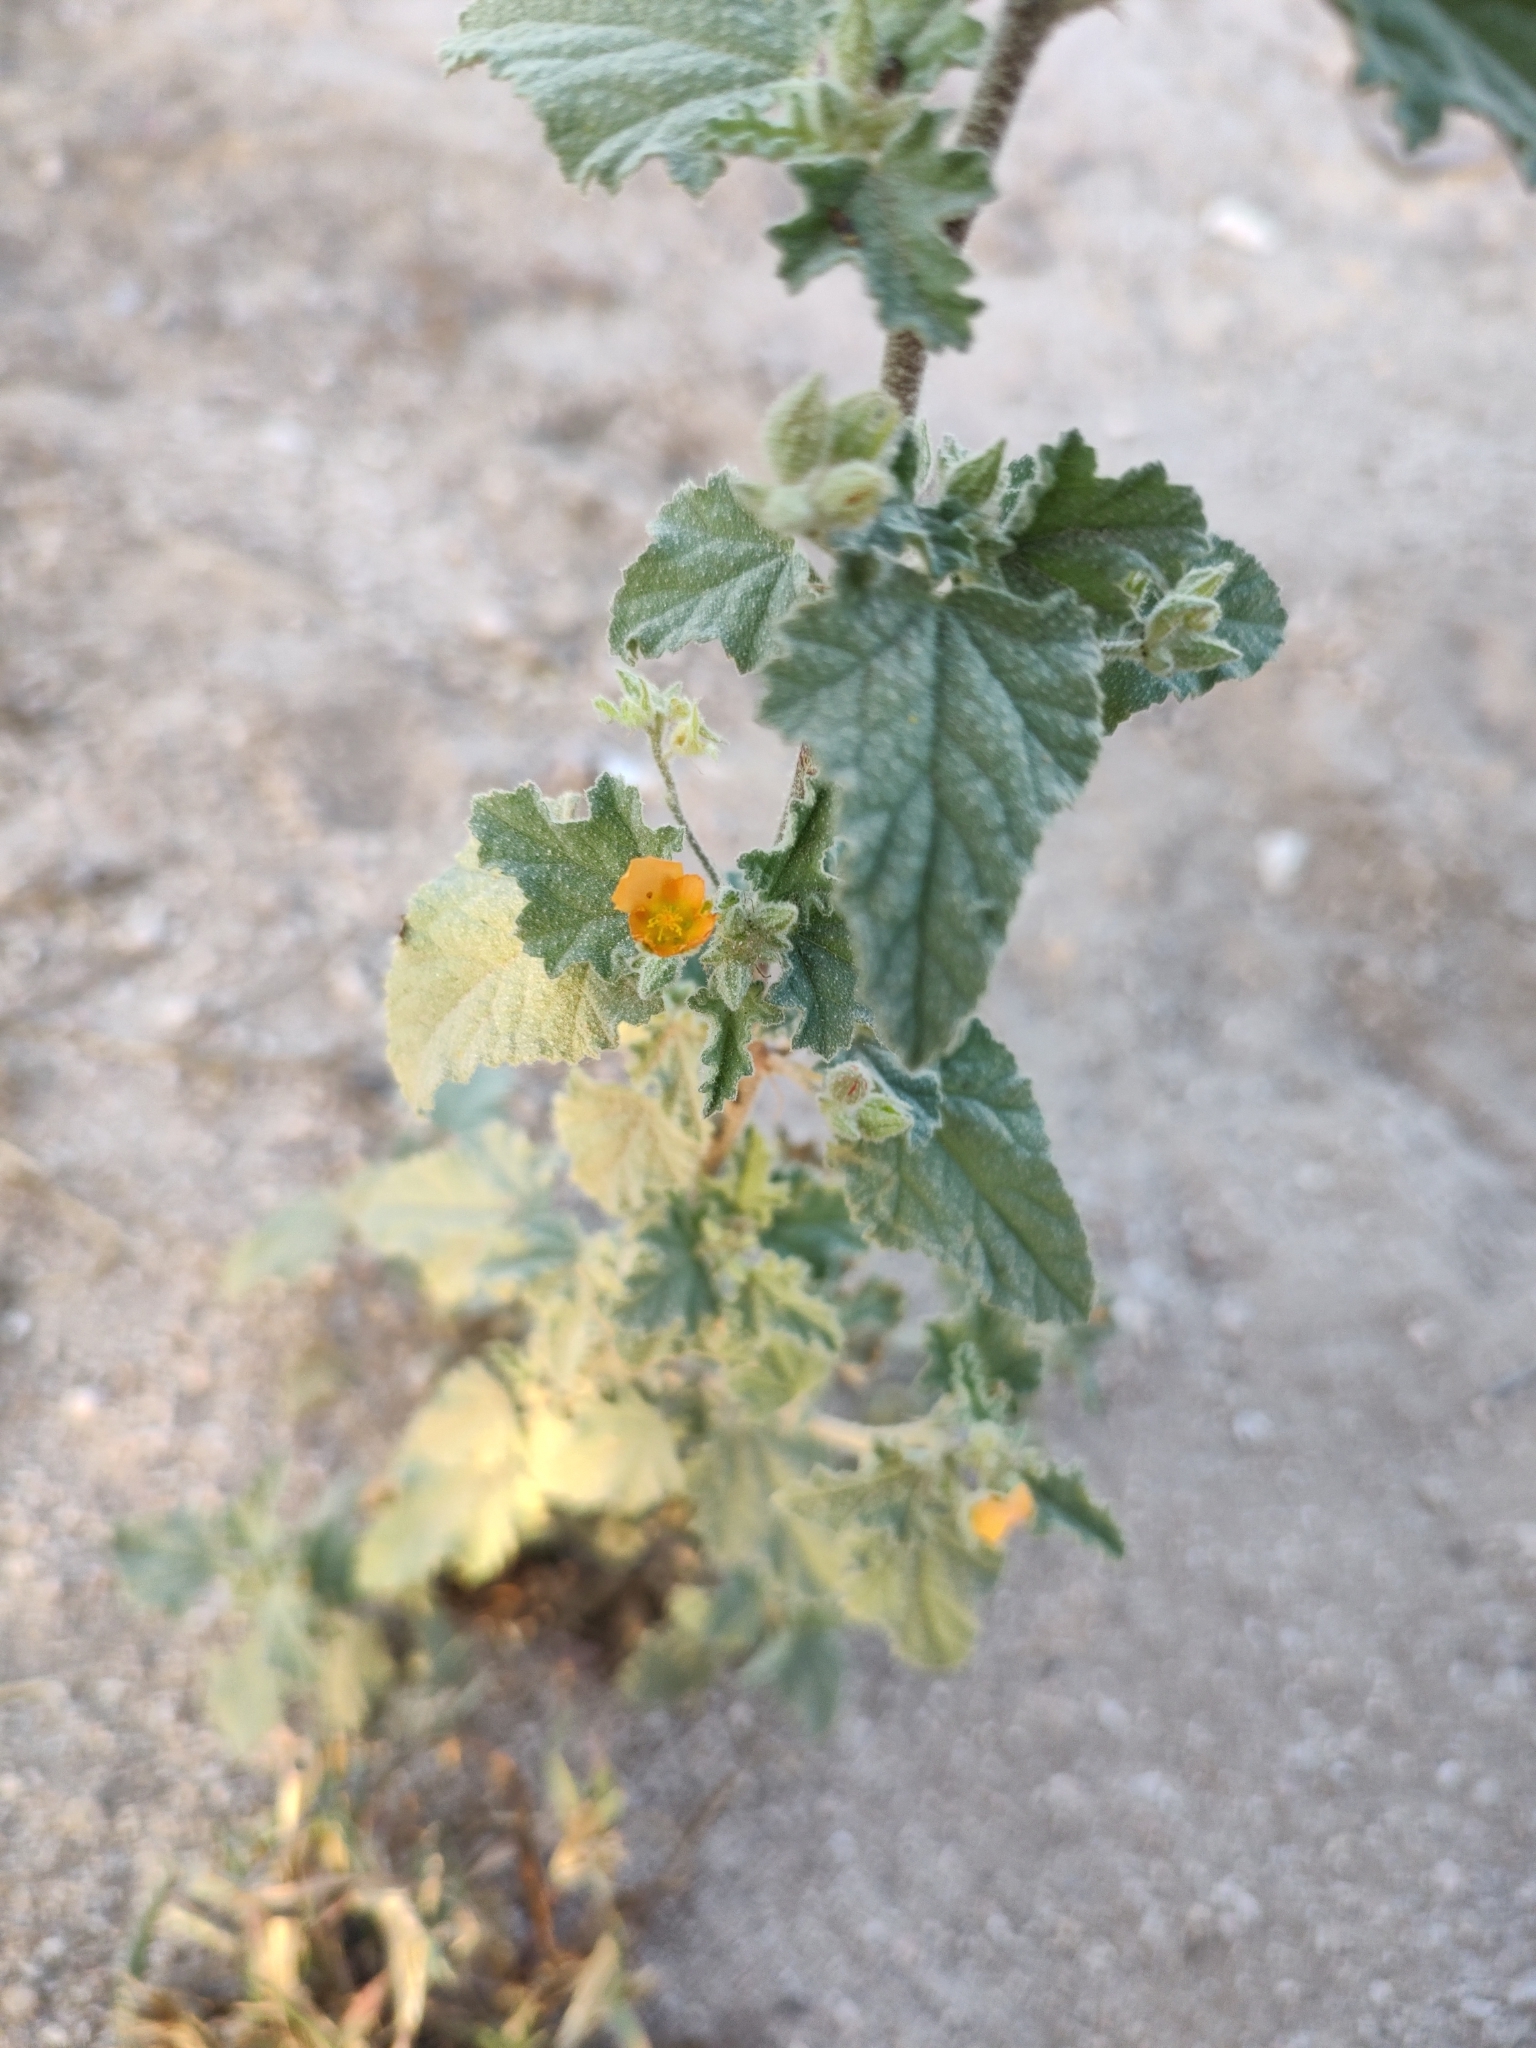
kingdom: Plantae
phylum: Tracheophyta
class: Magnoliopsida
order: Malvales
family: Malvaceae
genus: Sphaeralcea
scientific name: Sphaeralcea coulteri
